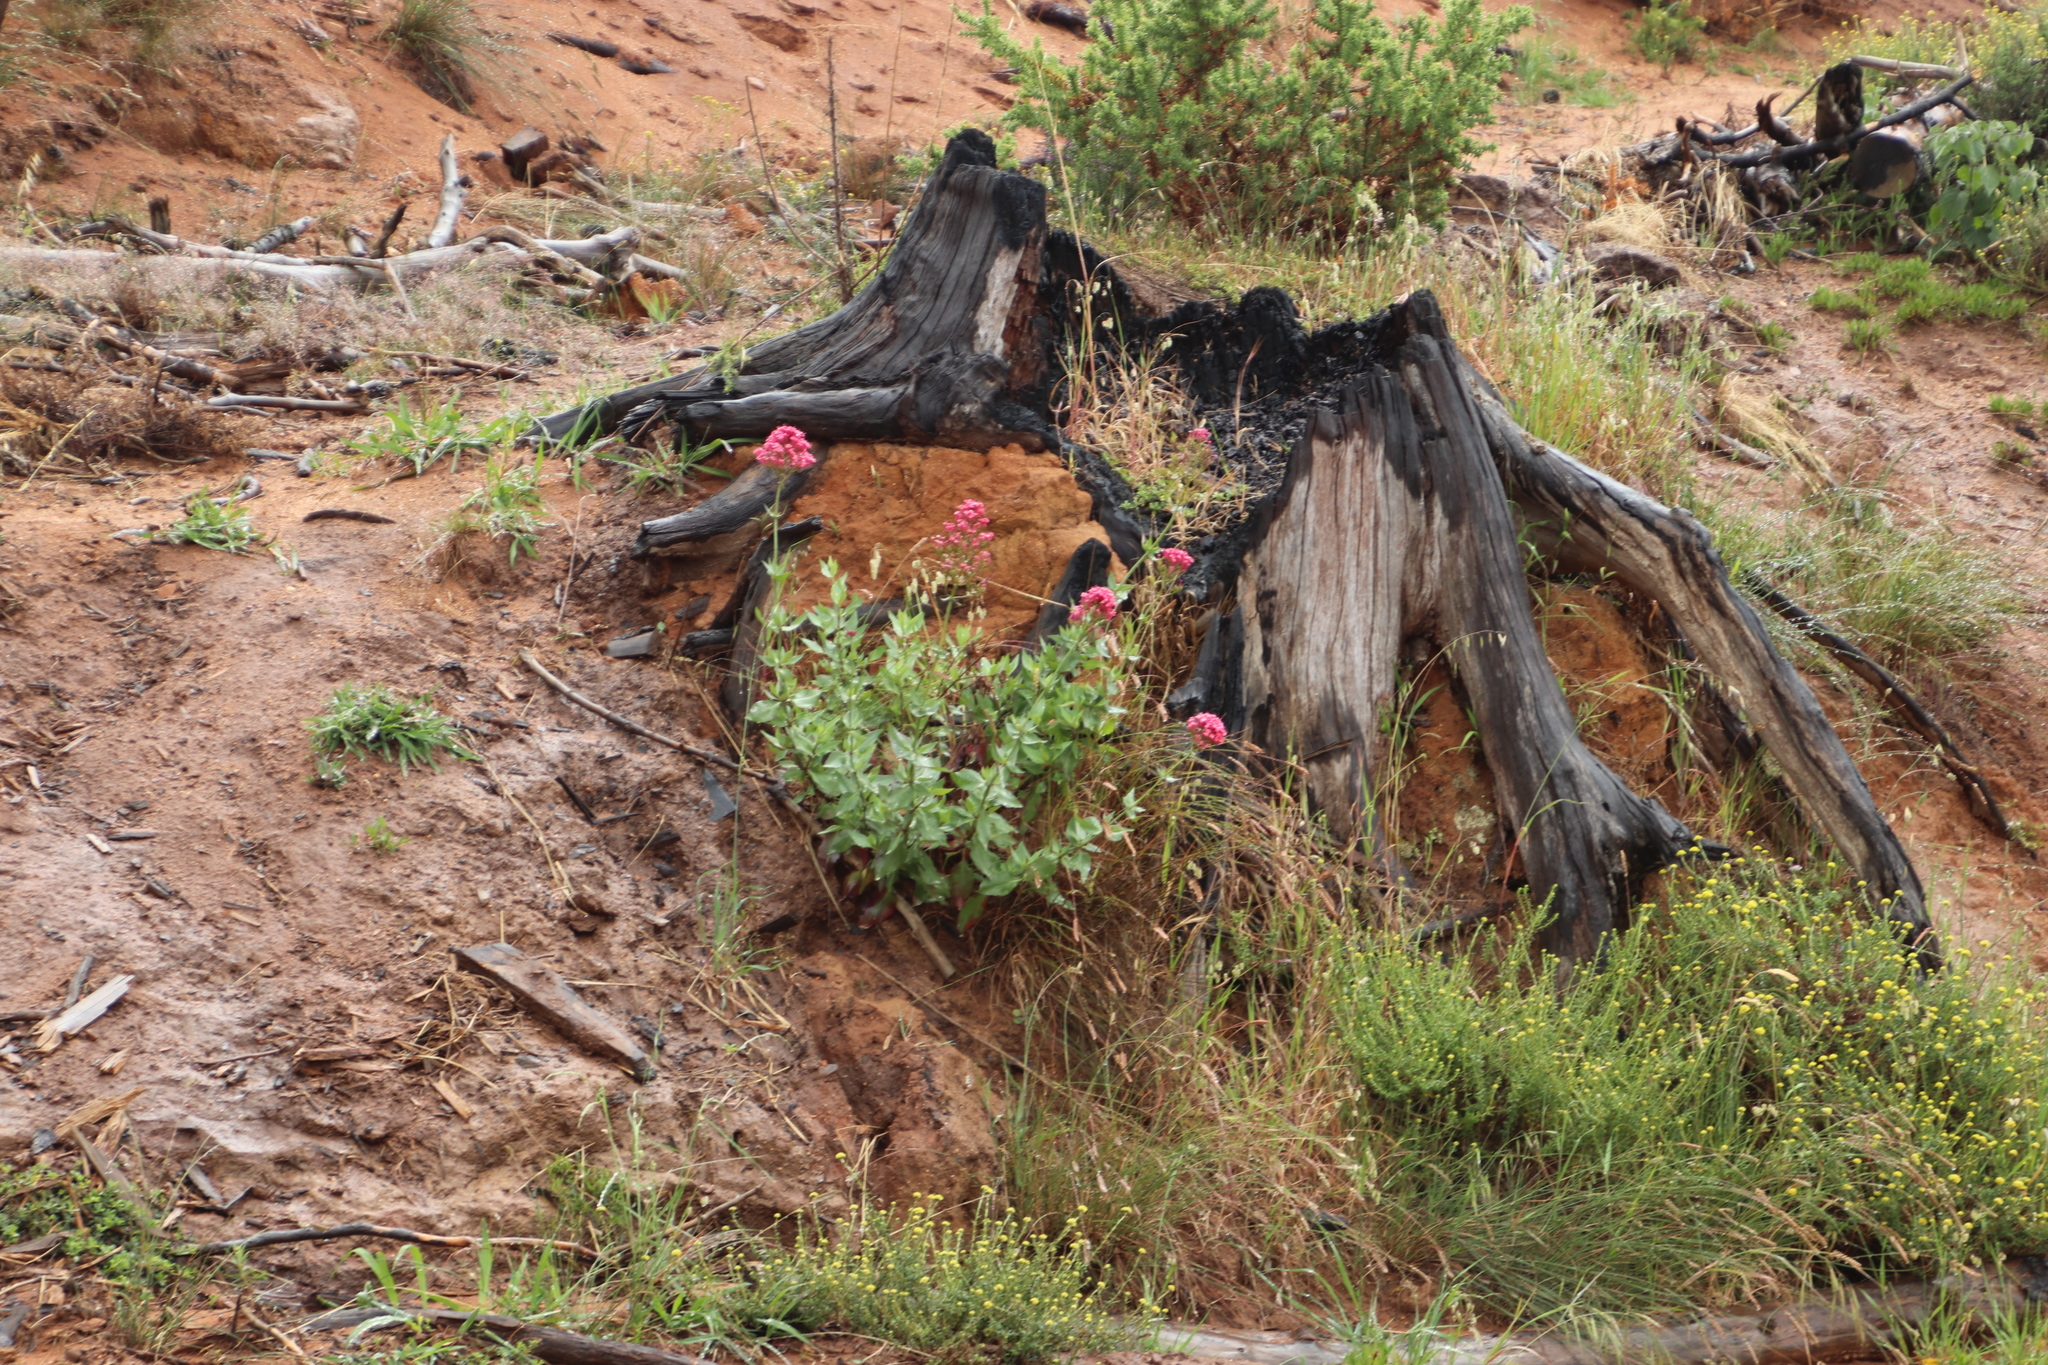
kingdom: Plantae
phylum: Tracheophyta
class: Magnoliopsida
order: Dipsacales
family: Caprifoliaceae
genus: Centranthus
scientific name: Centranthus ruber
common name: Red valerian
